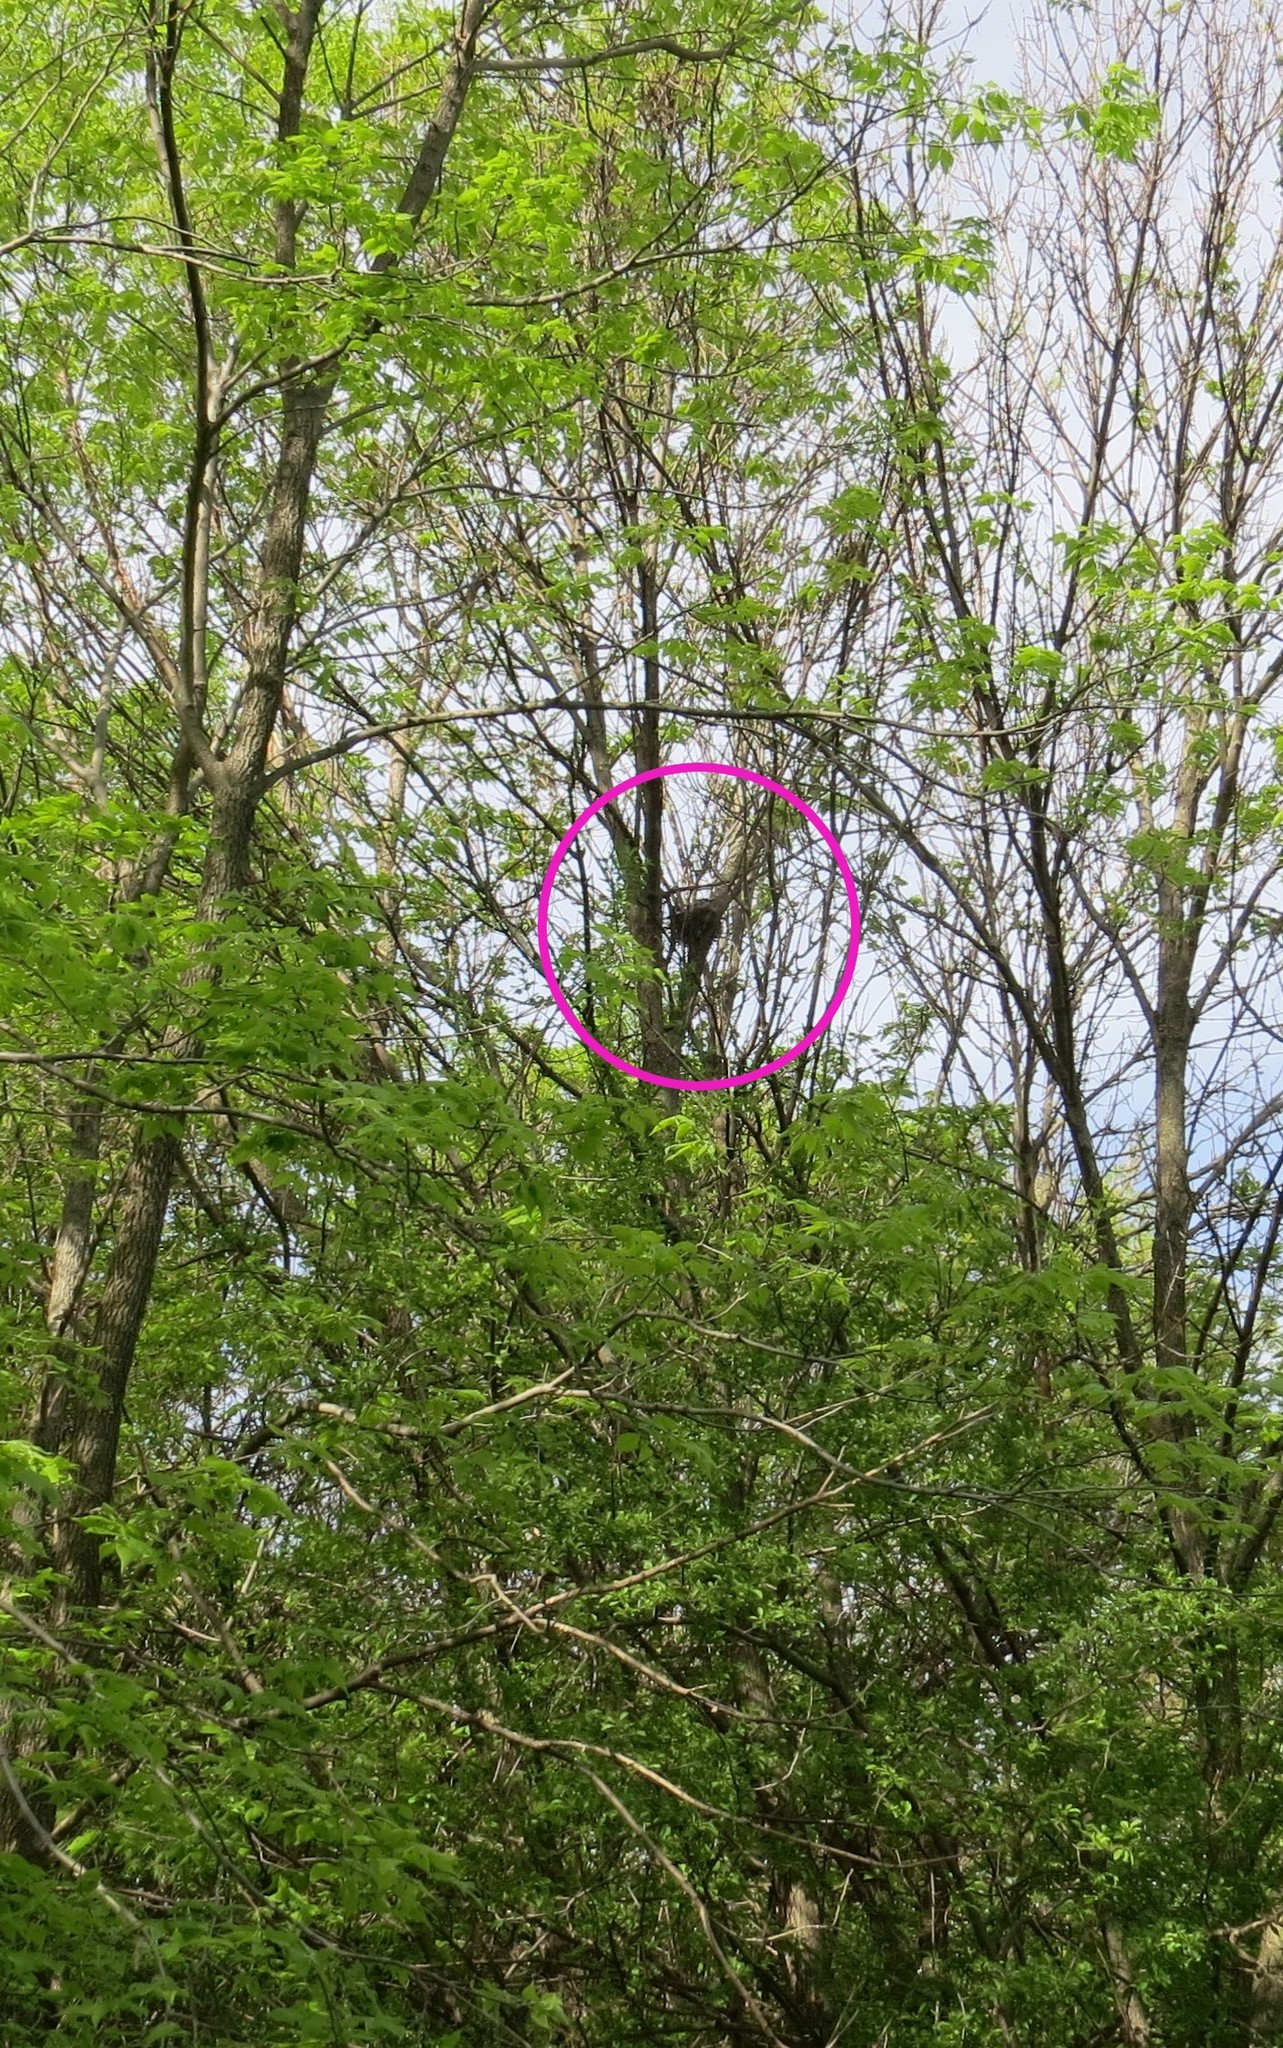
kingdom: Animalia
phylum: Chordata
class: Aves
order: Passeriformes
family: Corvidae
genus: Cyanocitta
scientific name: Cyanocitta cristata
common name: Blue jay
